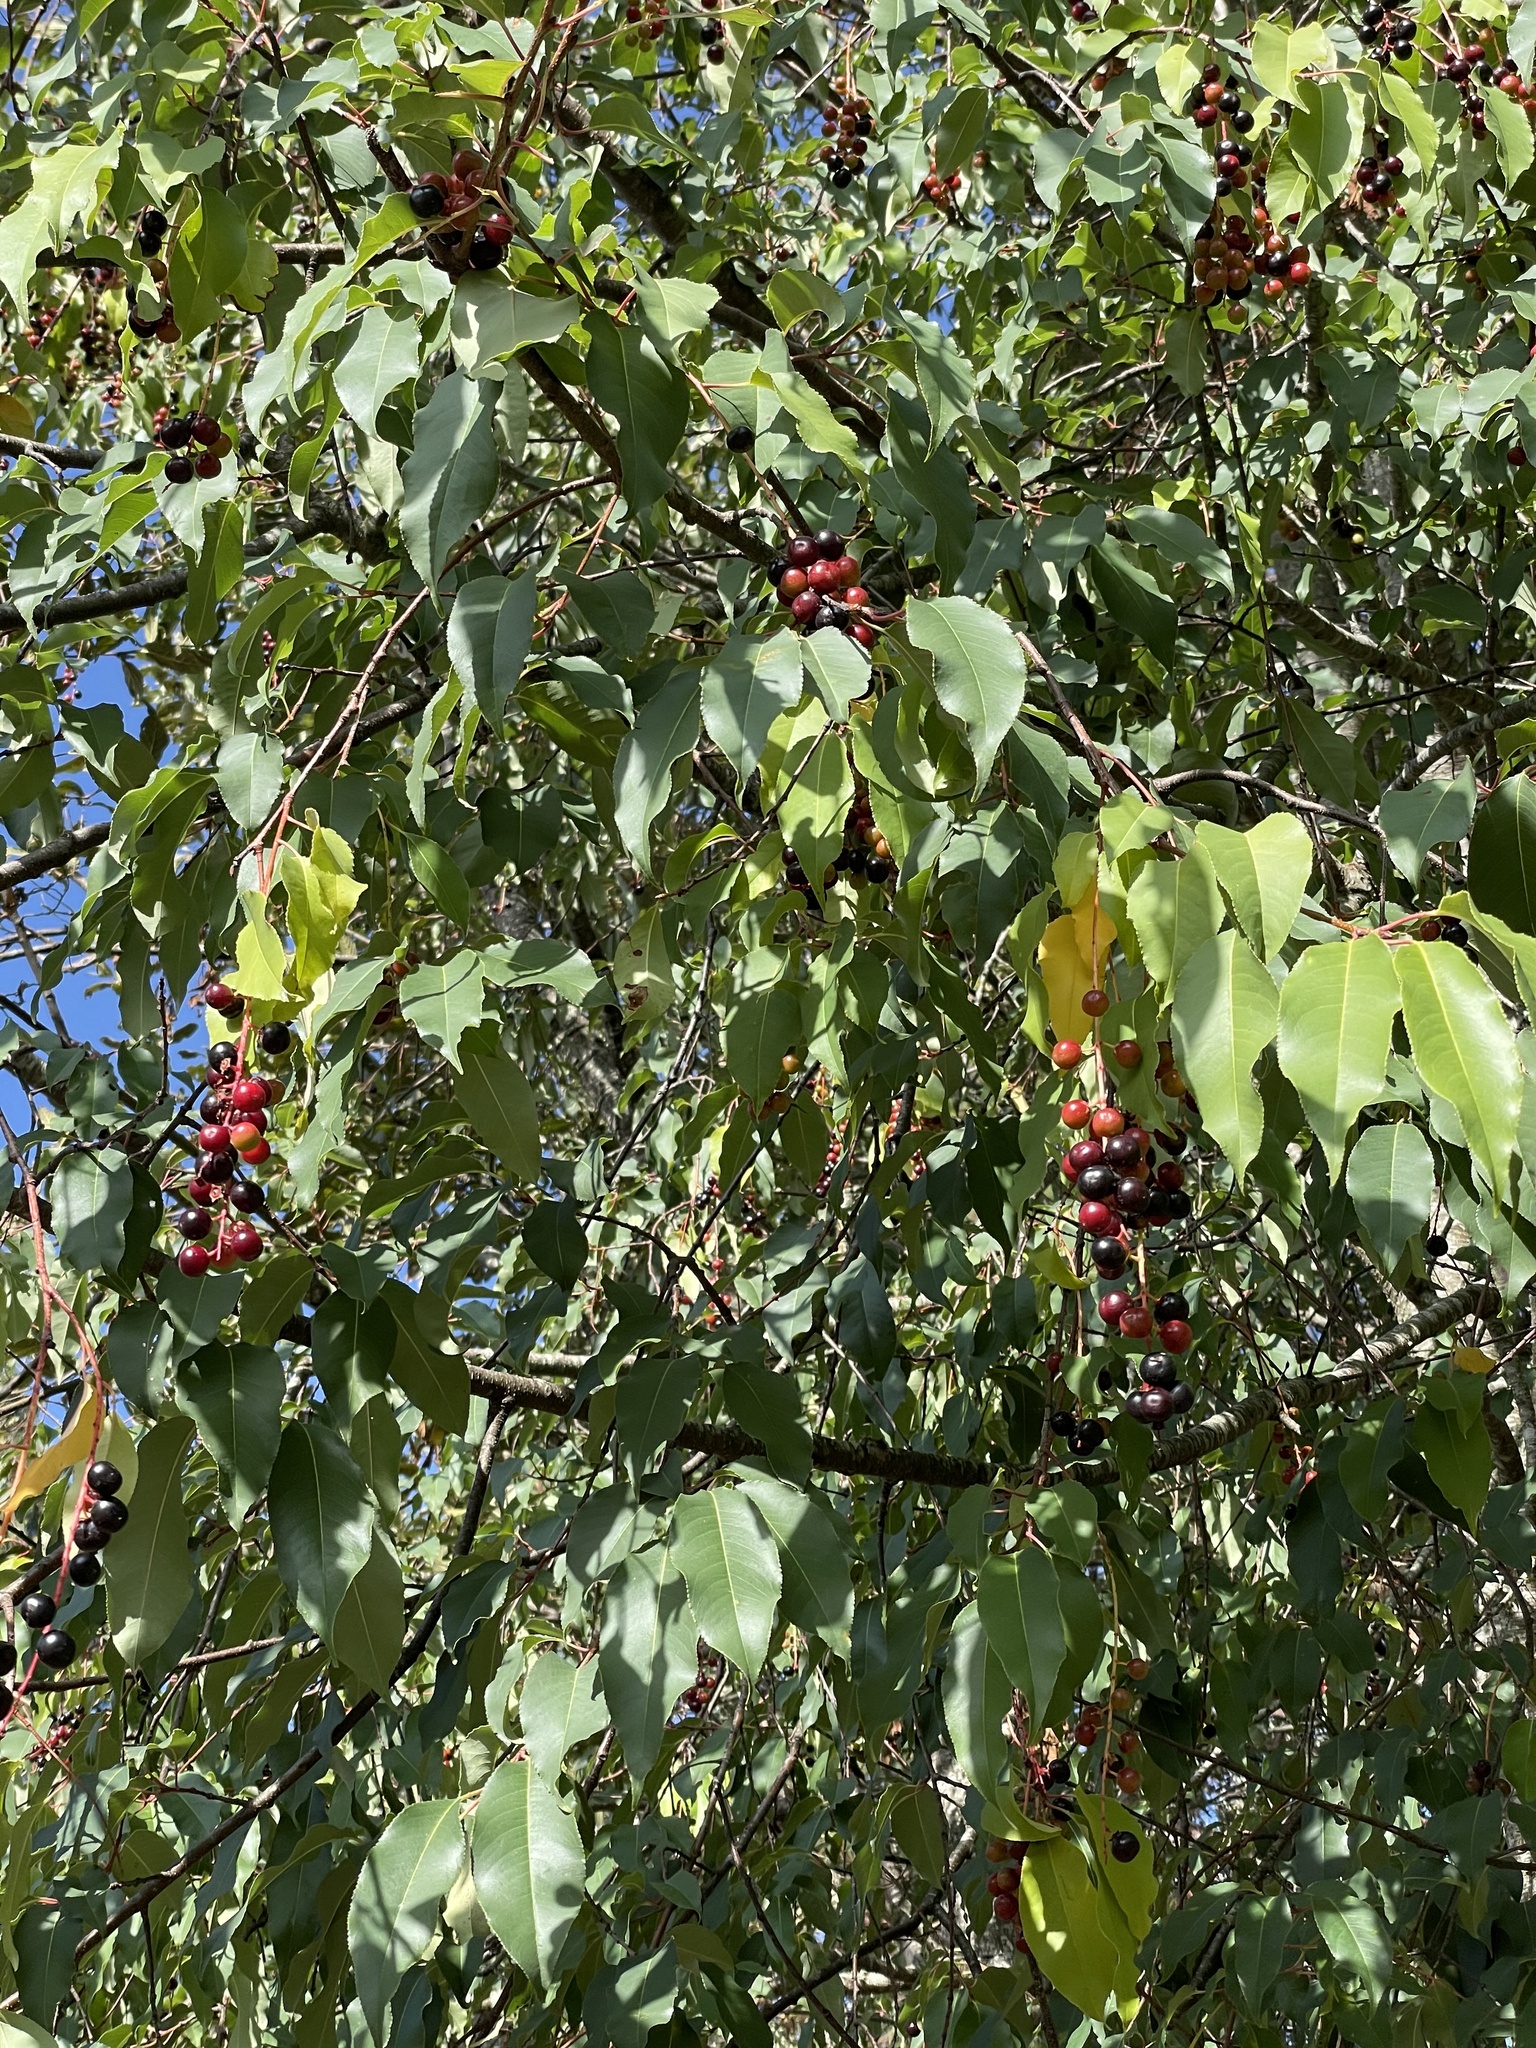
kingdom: Plantae
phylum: Tracheophyta
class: Magnoliopsida
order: Rosales
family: Rosaceae
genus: Prunus
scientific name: Prunus serotina
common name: Black cherry
